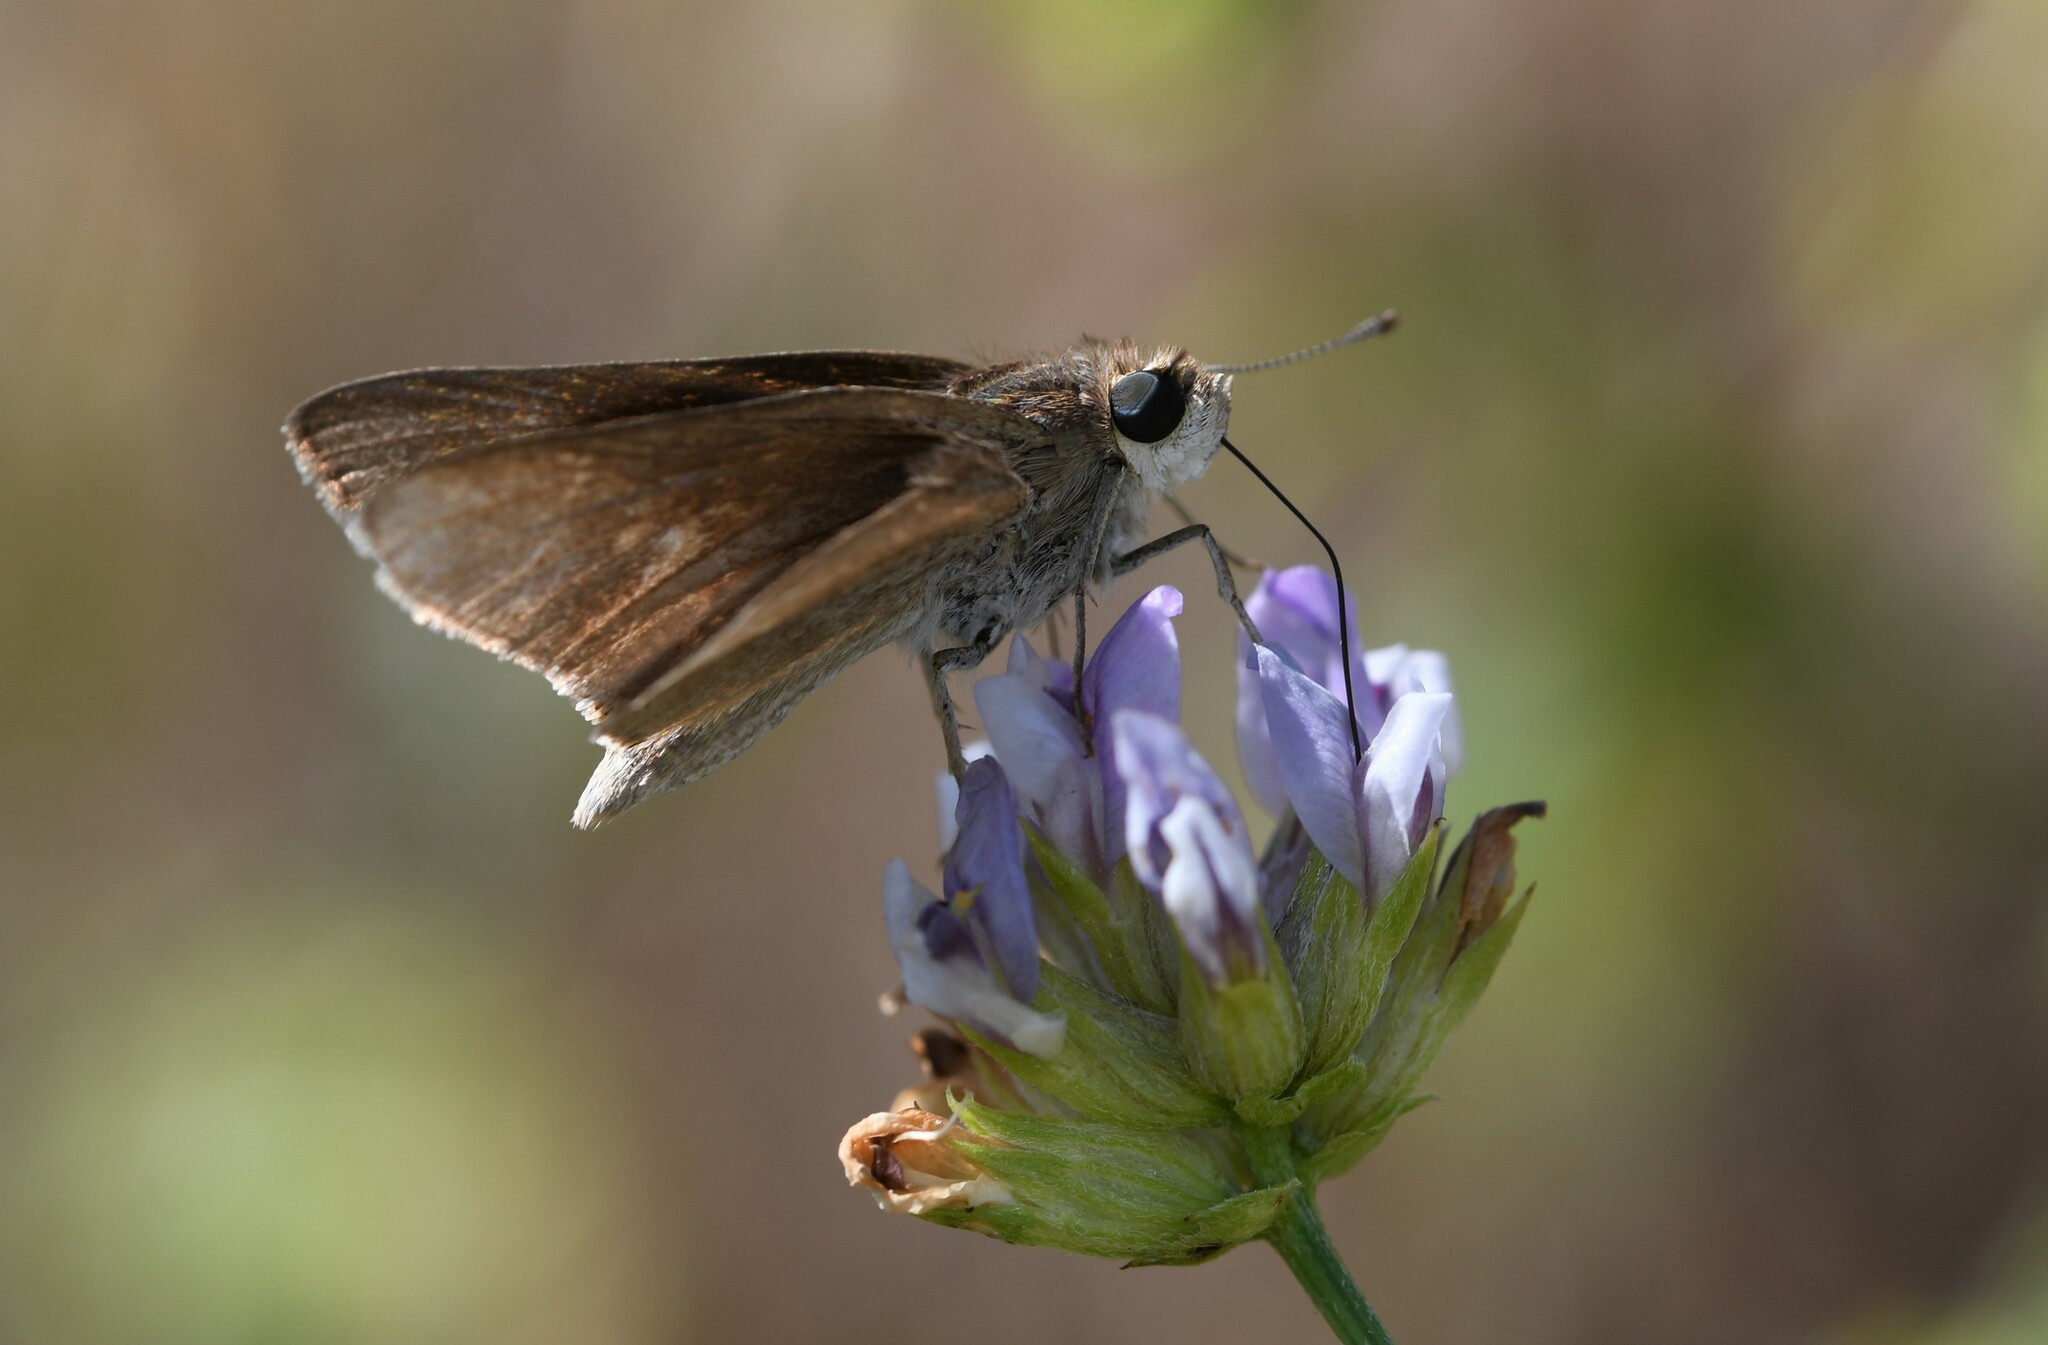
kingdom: Animalia
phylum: Arthropoda
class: Insecta
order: Lepidoptera
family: Hesperiidae
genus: Gegenes
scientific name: Gegenes nostrodamus
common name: Mediterranean skipper
